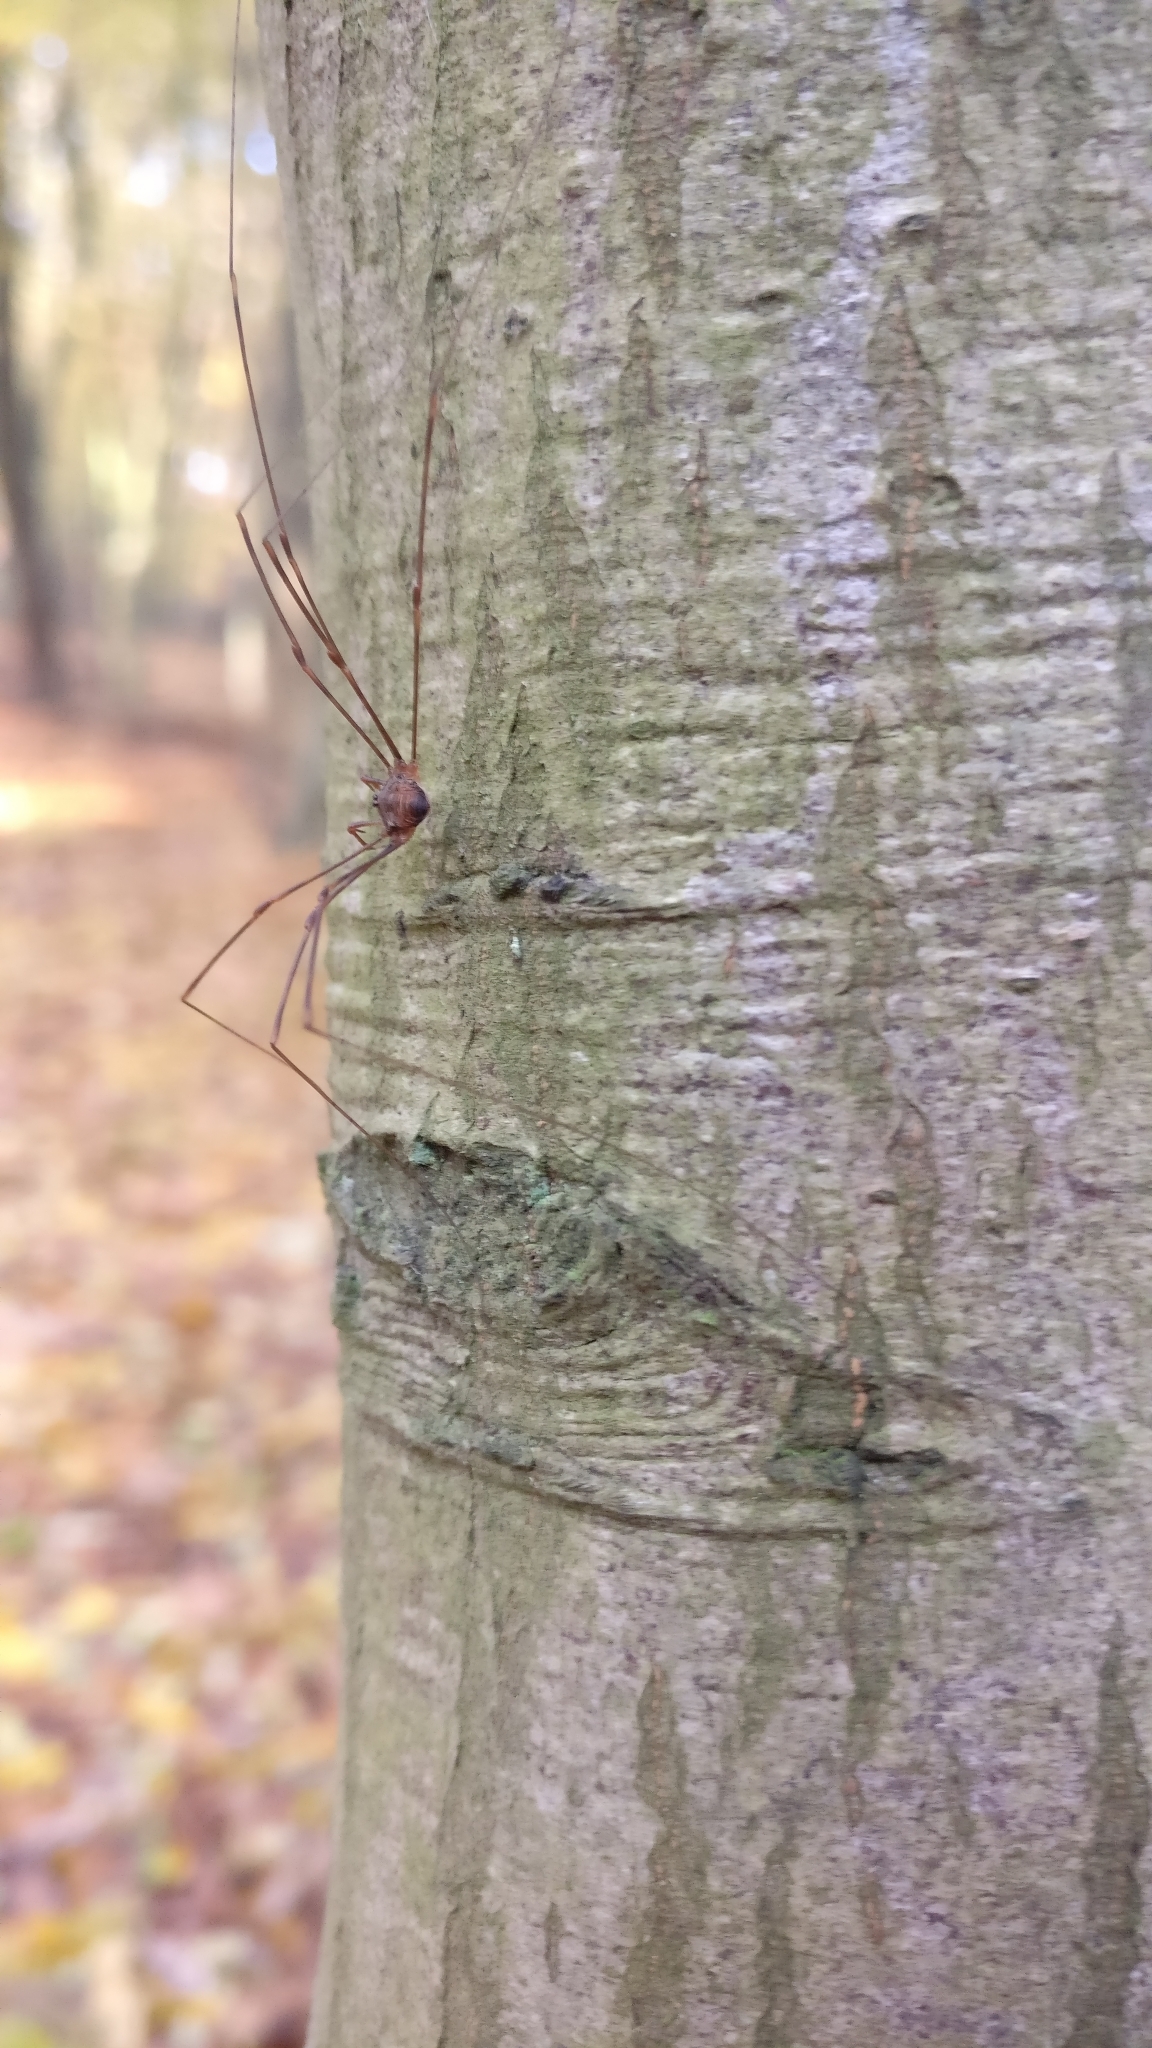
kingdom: Animalia
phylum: Arthropoda
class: Arachnida
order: Opiliones
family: Phalangiidae
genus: Dicranopalpus
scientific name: Dicranopalpus ramosus
